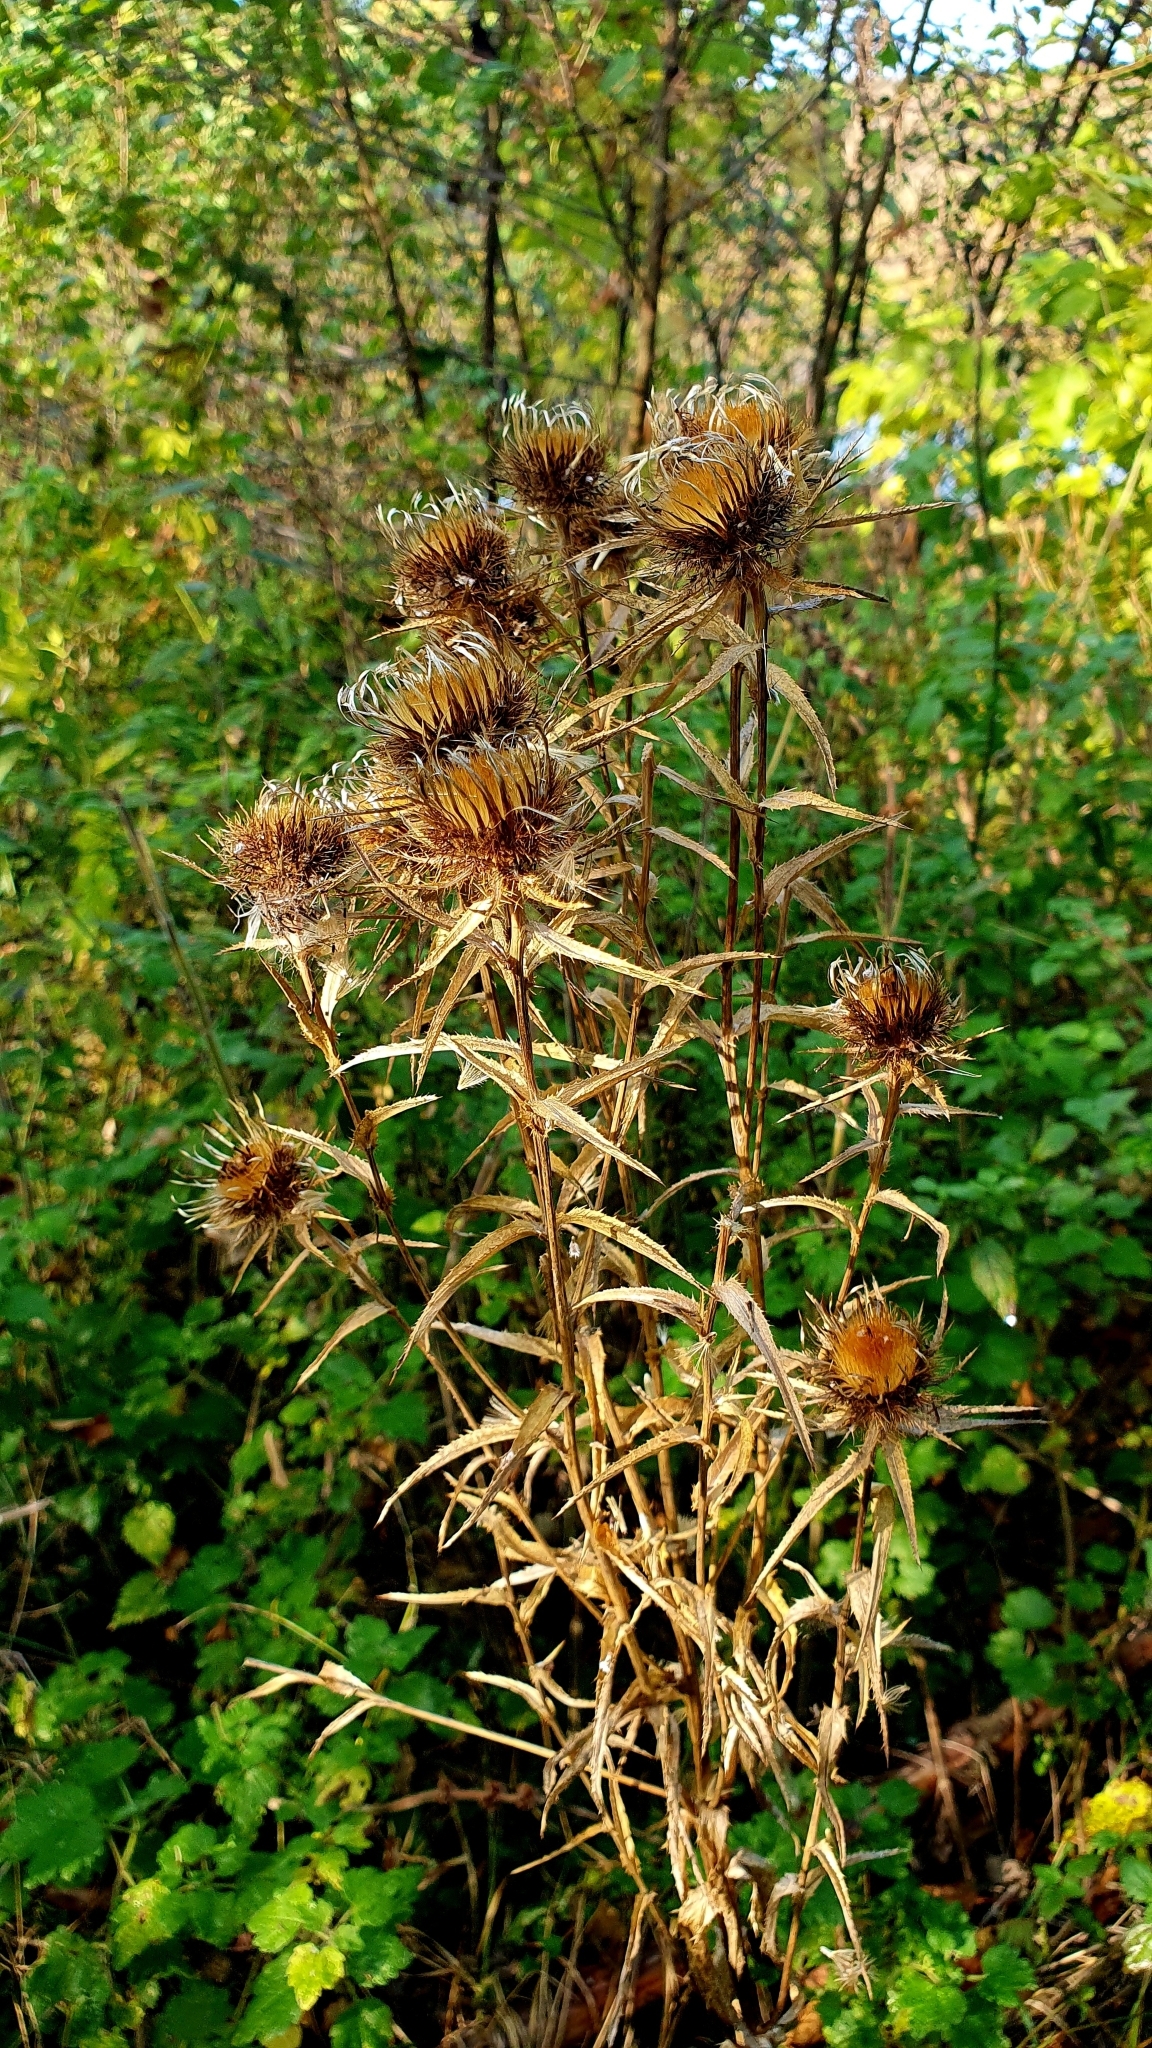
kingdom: Plantae
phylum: Tracheophyta
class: Magnoliopsida
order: Asterales
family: Asteraceae
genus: Carlina
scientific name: Carlina biebersteinii
